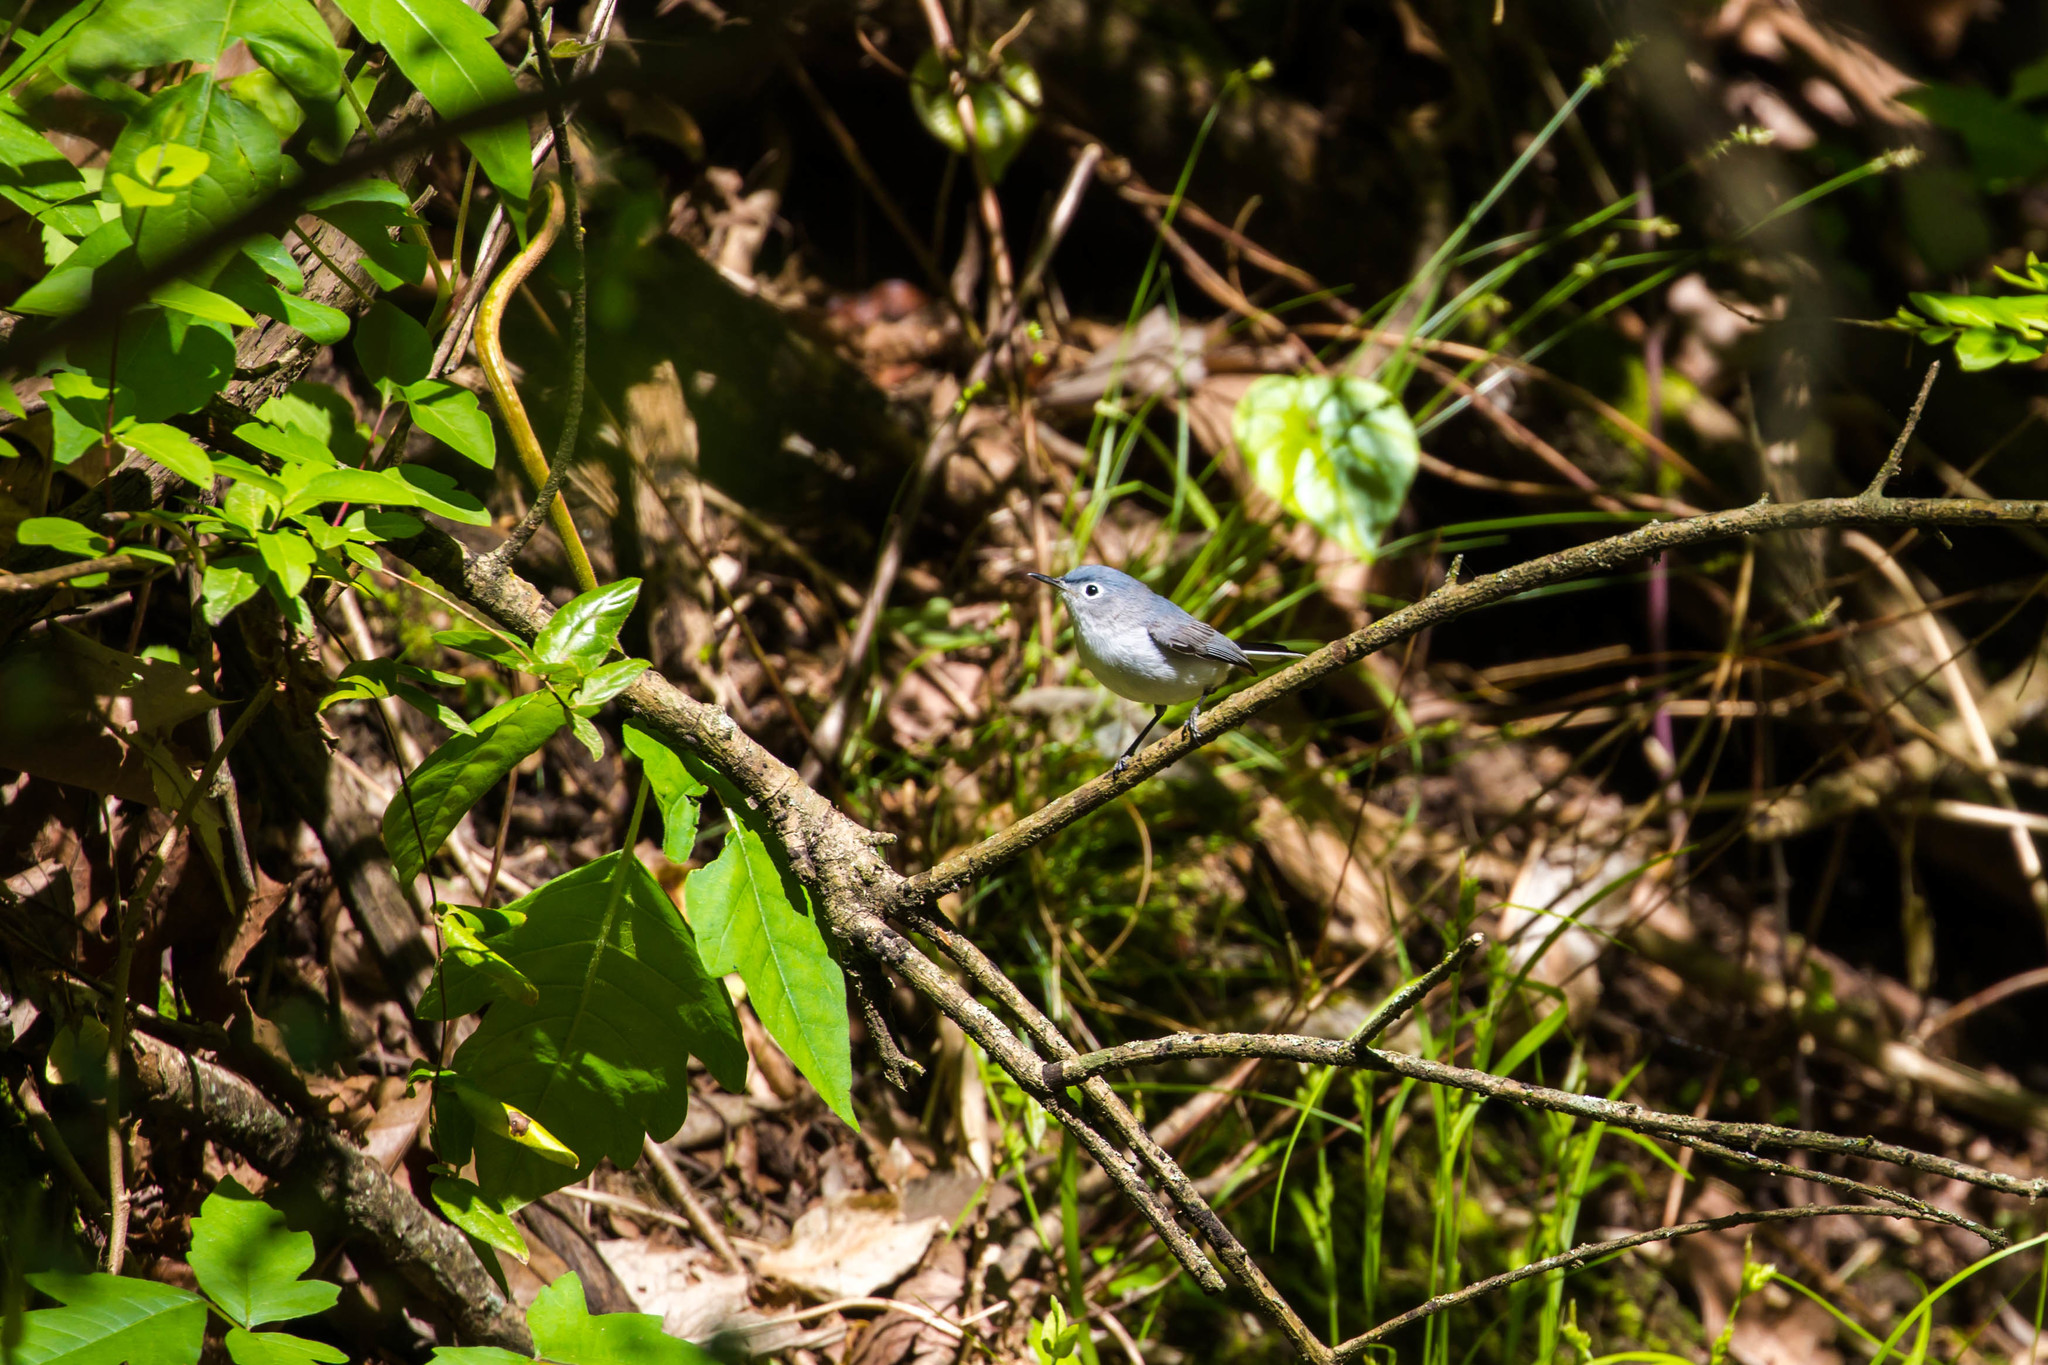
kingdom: Animalia
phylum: Chordata
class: Aves
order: Passeriformes
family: Polioptilidae
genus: Polioptila
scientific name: Polioptila caerulea
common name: Blue-gray gnatcatcher
